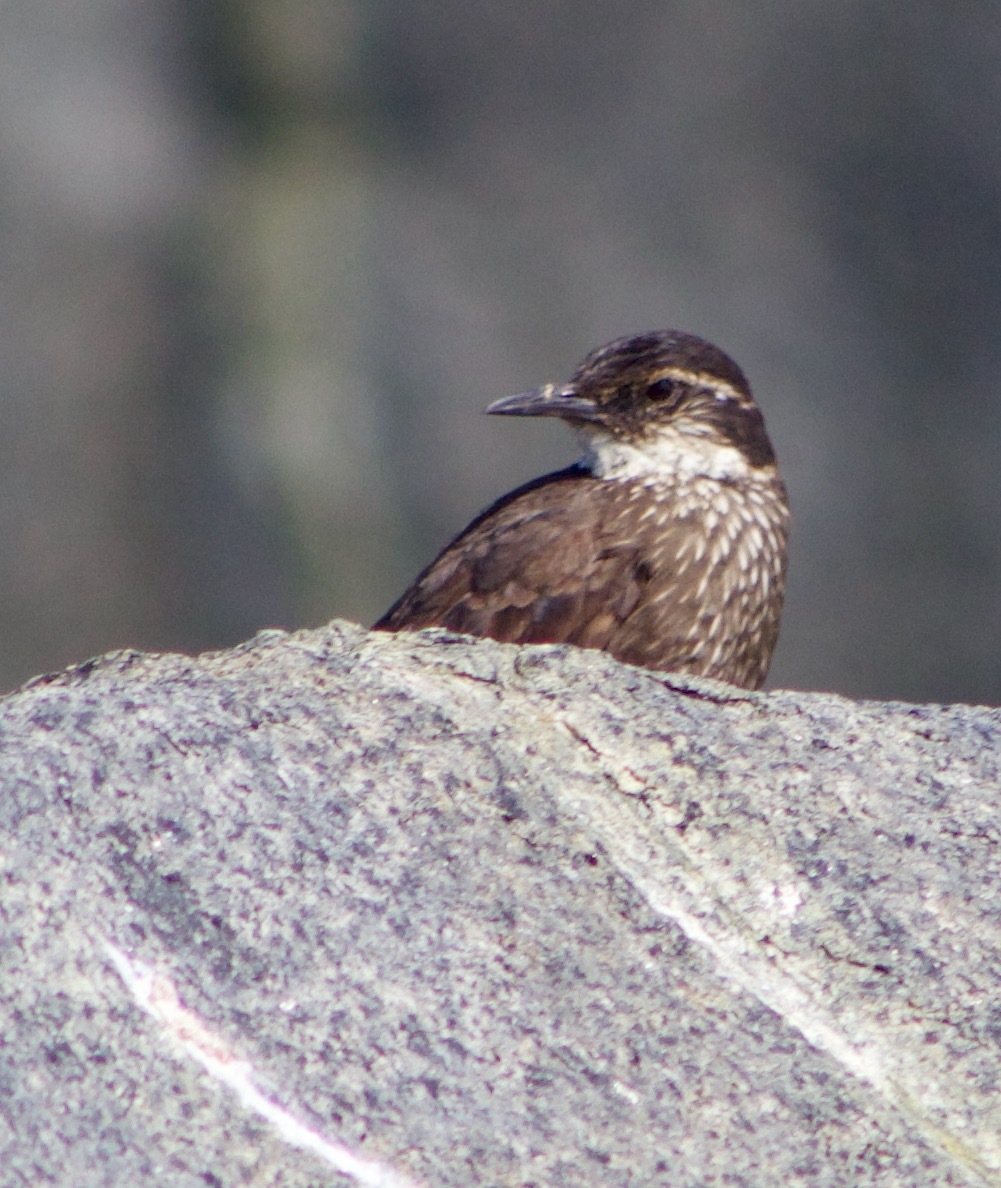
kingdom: Animalia
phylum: Chordata
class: Aves
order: Passeriformes
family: Furnariidae
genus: Cinclodes
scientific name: Cinclodes nigrofumosus
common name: Chilean seaside cinclodes
